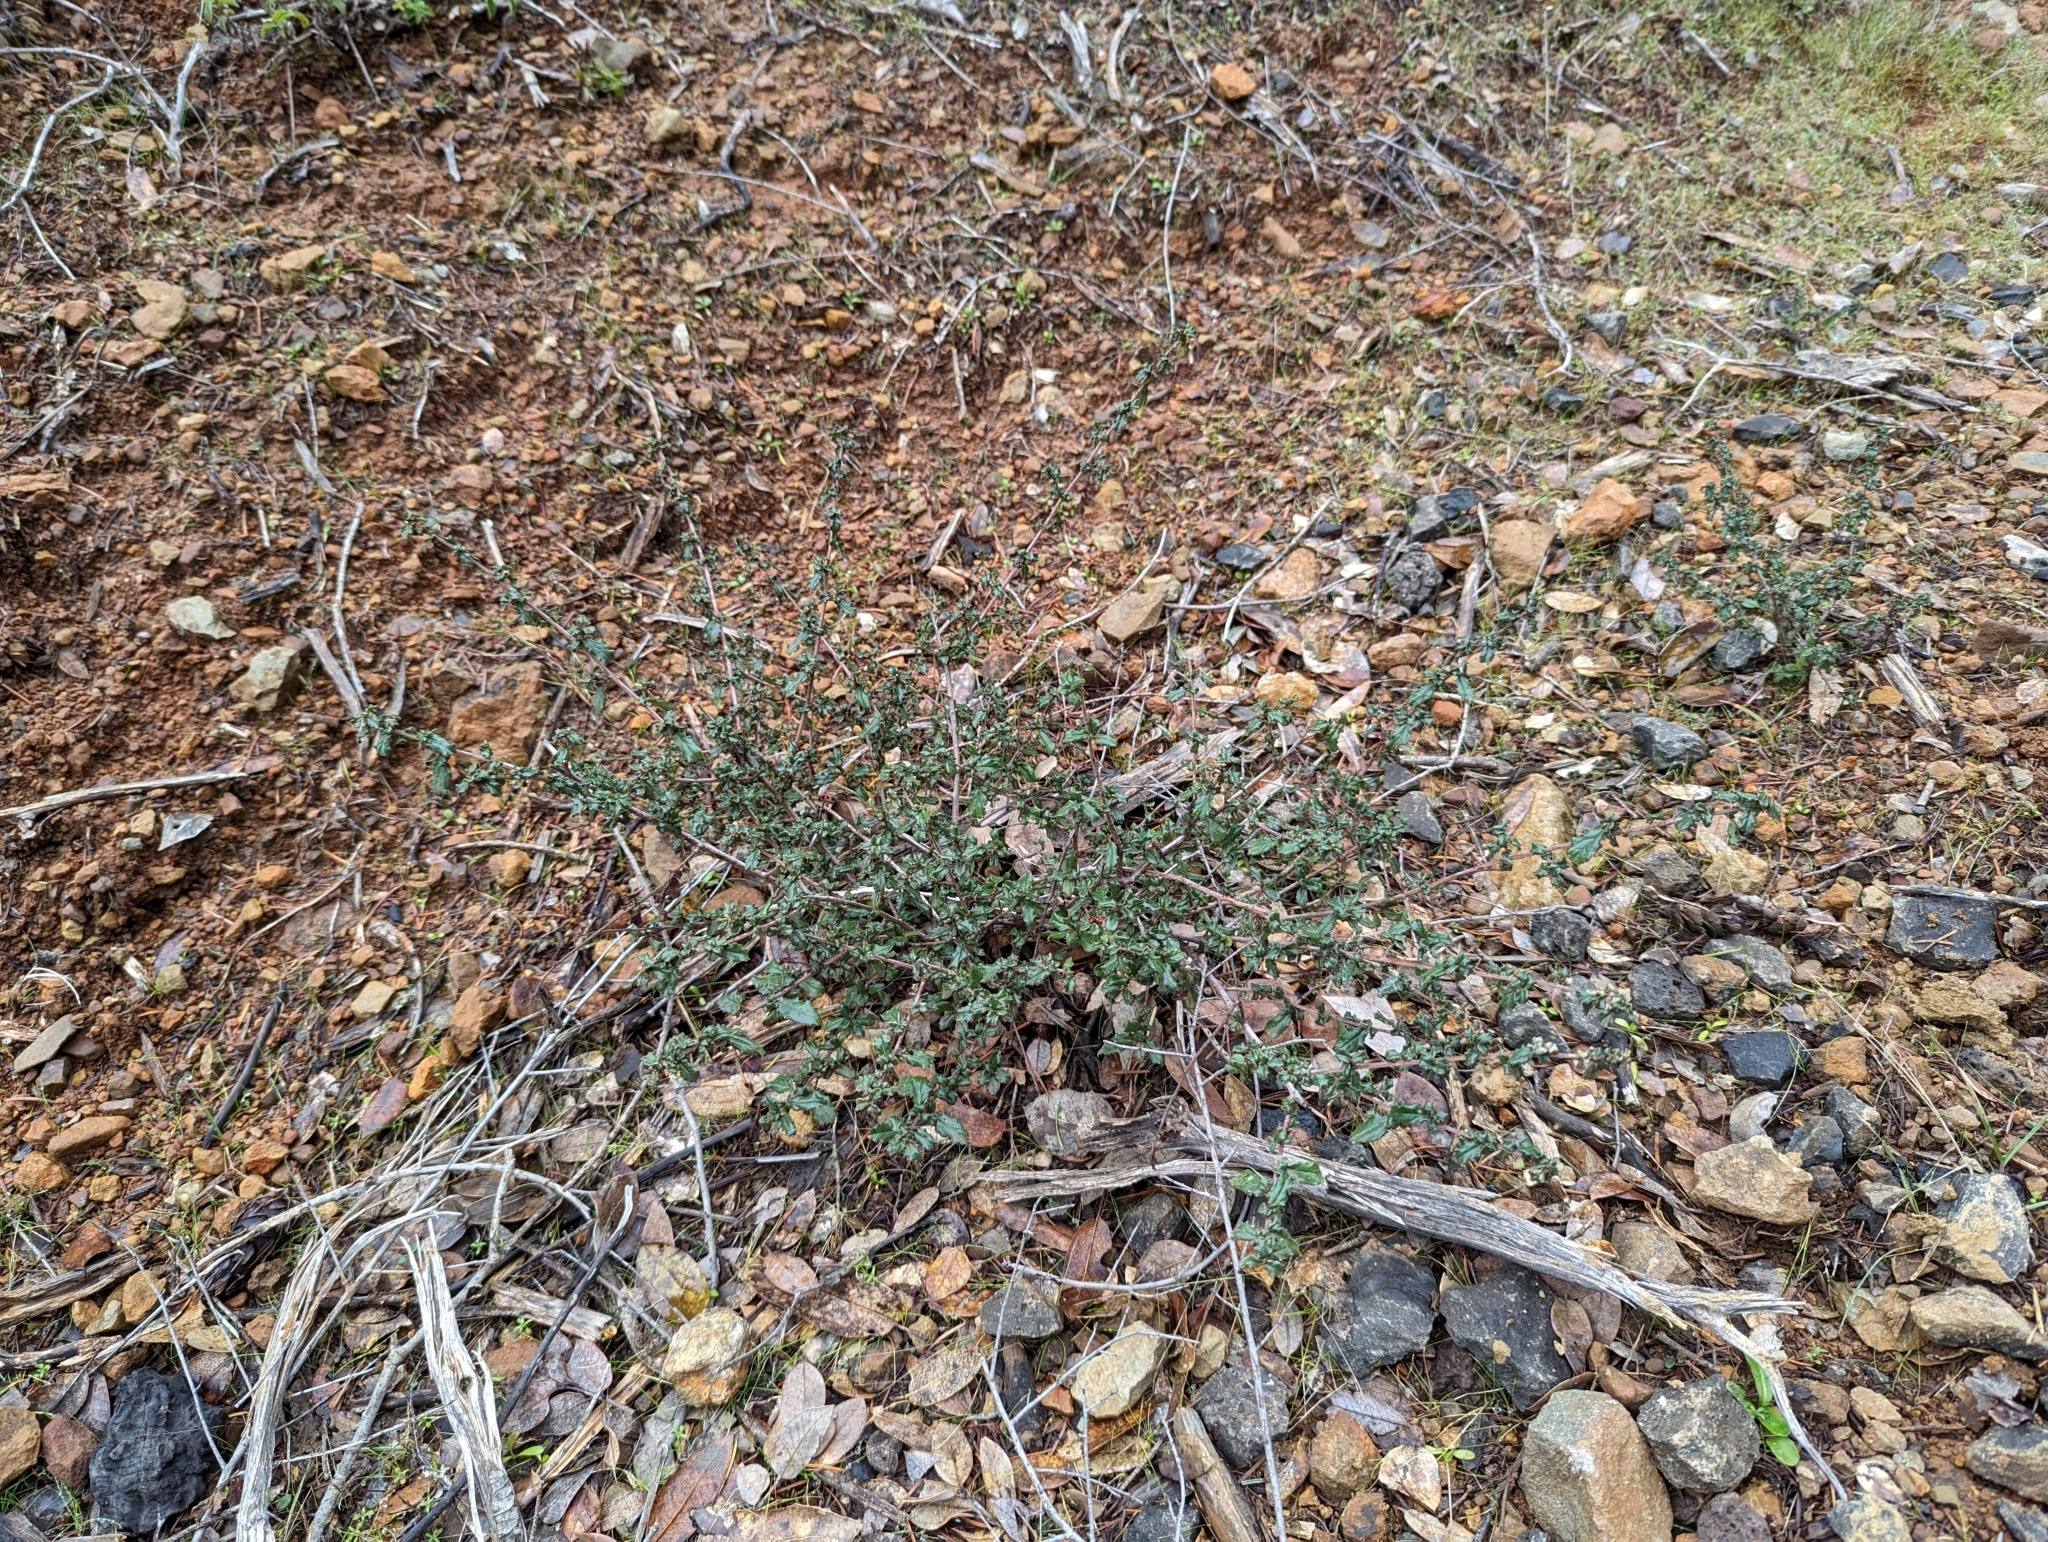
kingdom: Plantae
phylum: Tracheophyta
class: Magnoliopsida
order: Rosales
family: Rhamnaceae
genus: Ceanothus
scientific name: Ceanothus foliosus
